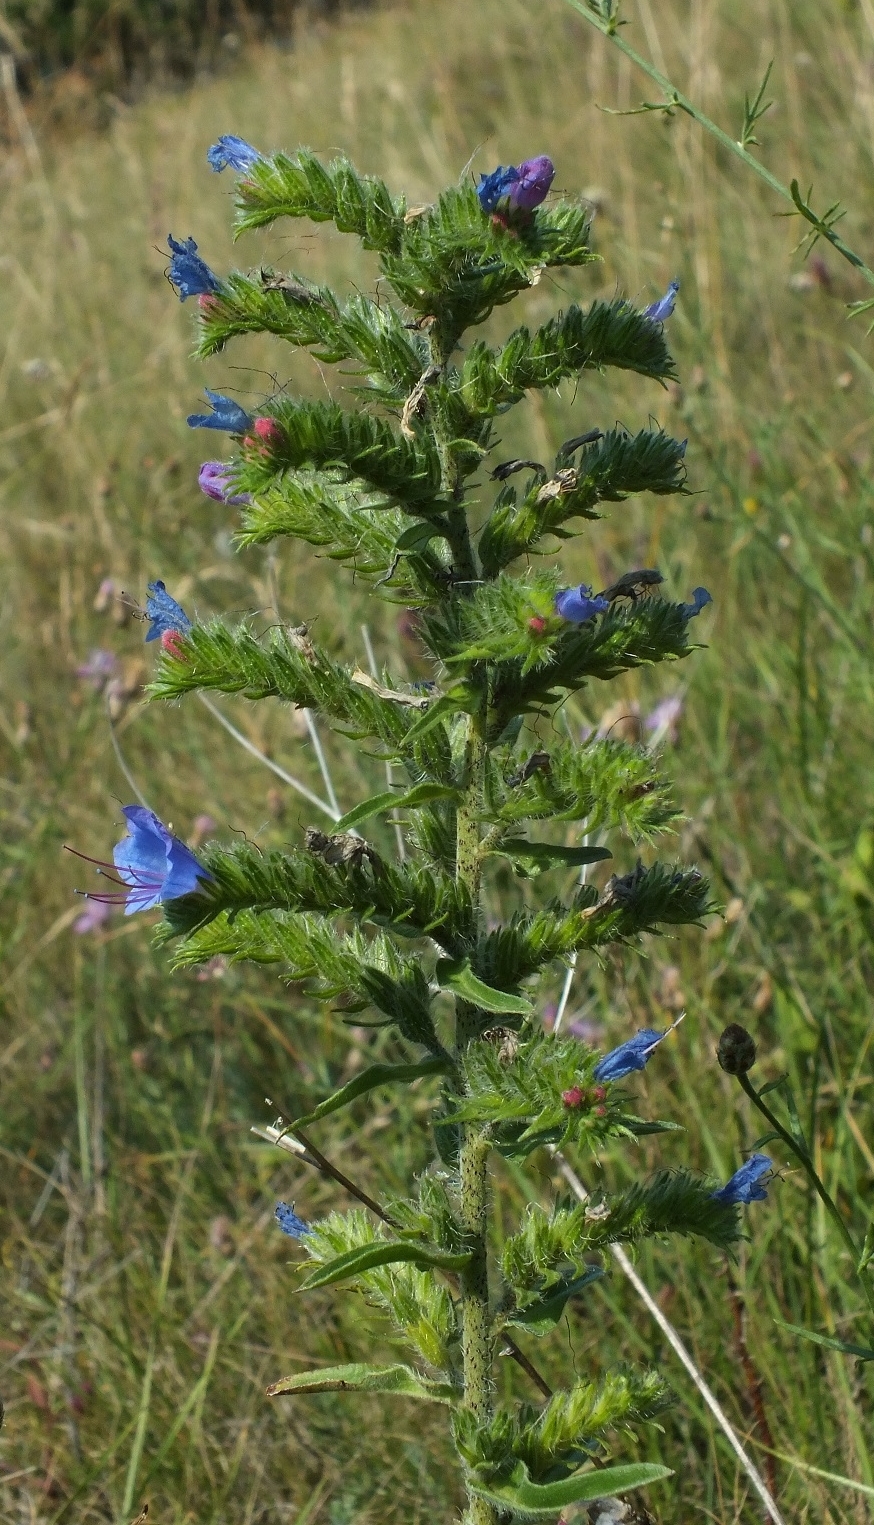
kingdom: Plantae
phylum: Tracheophyta
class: Magnoliopsida
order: Boraginales
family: Boraginaceae
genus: Echium
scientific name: Echium vulgare
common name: Common viper's bugloss
